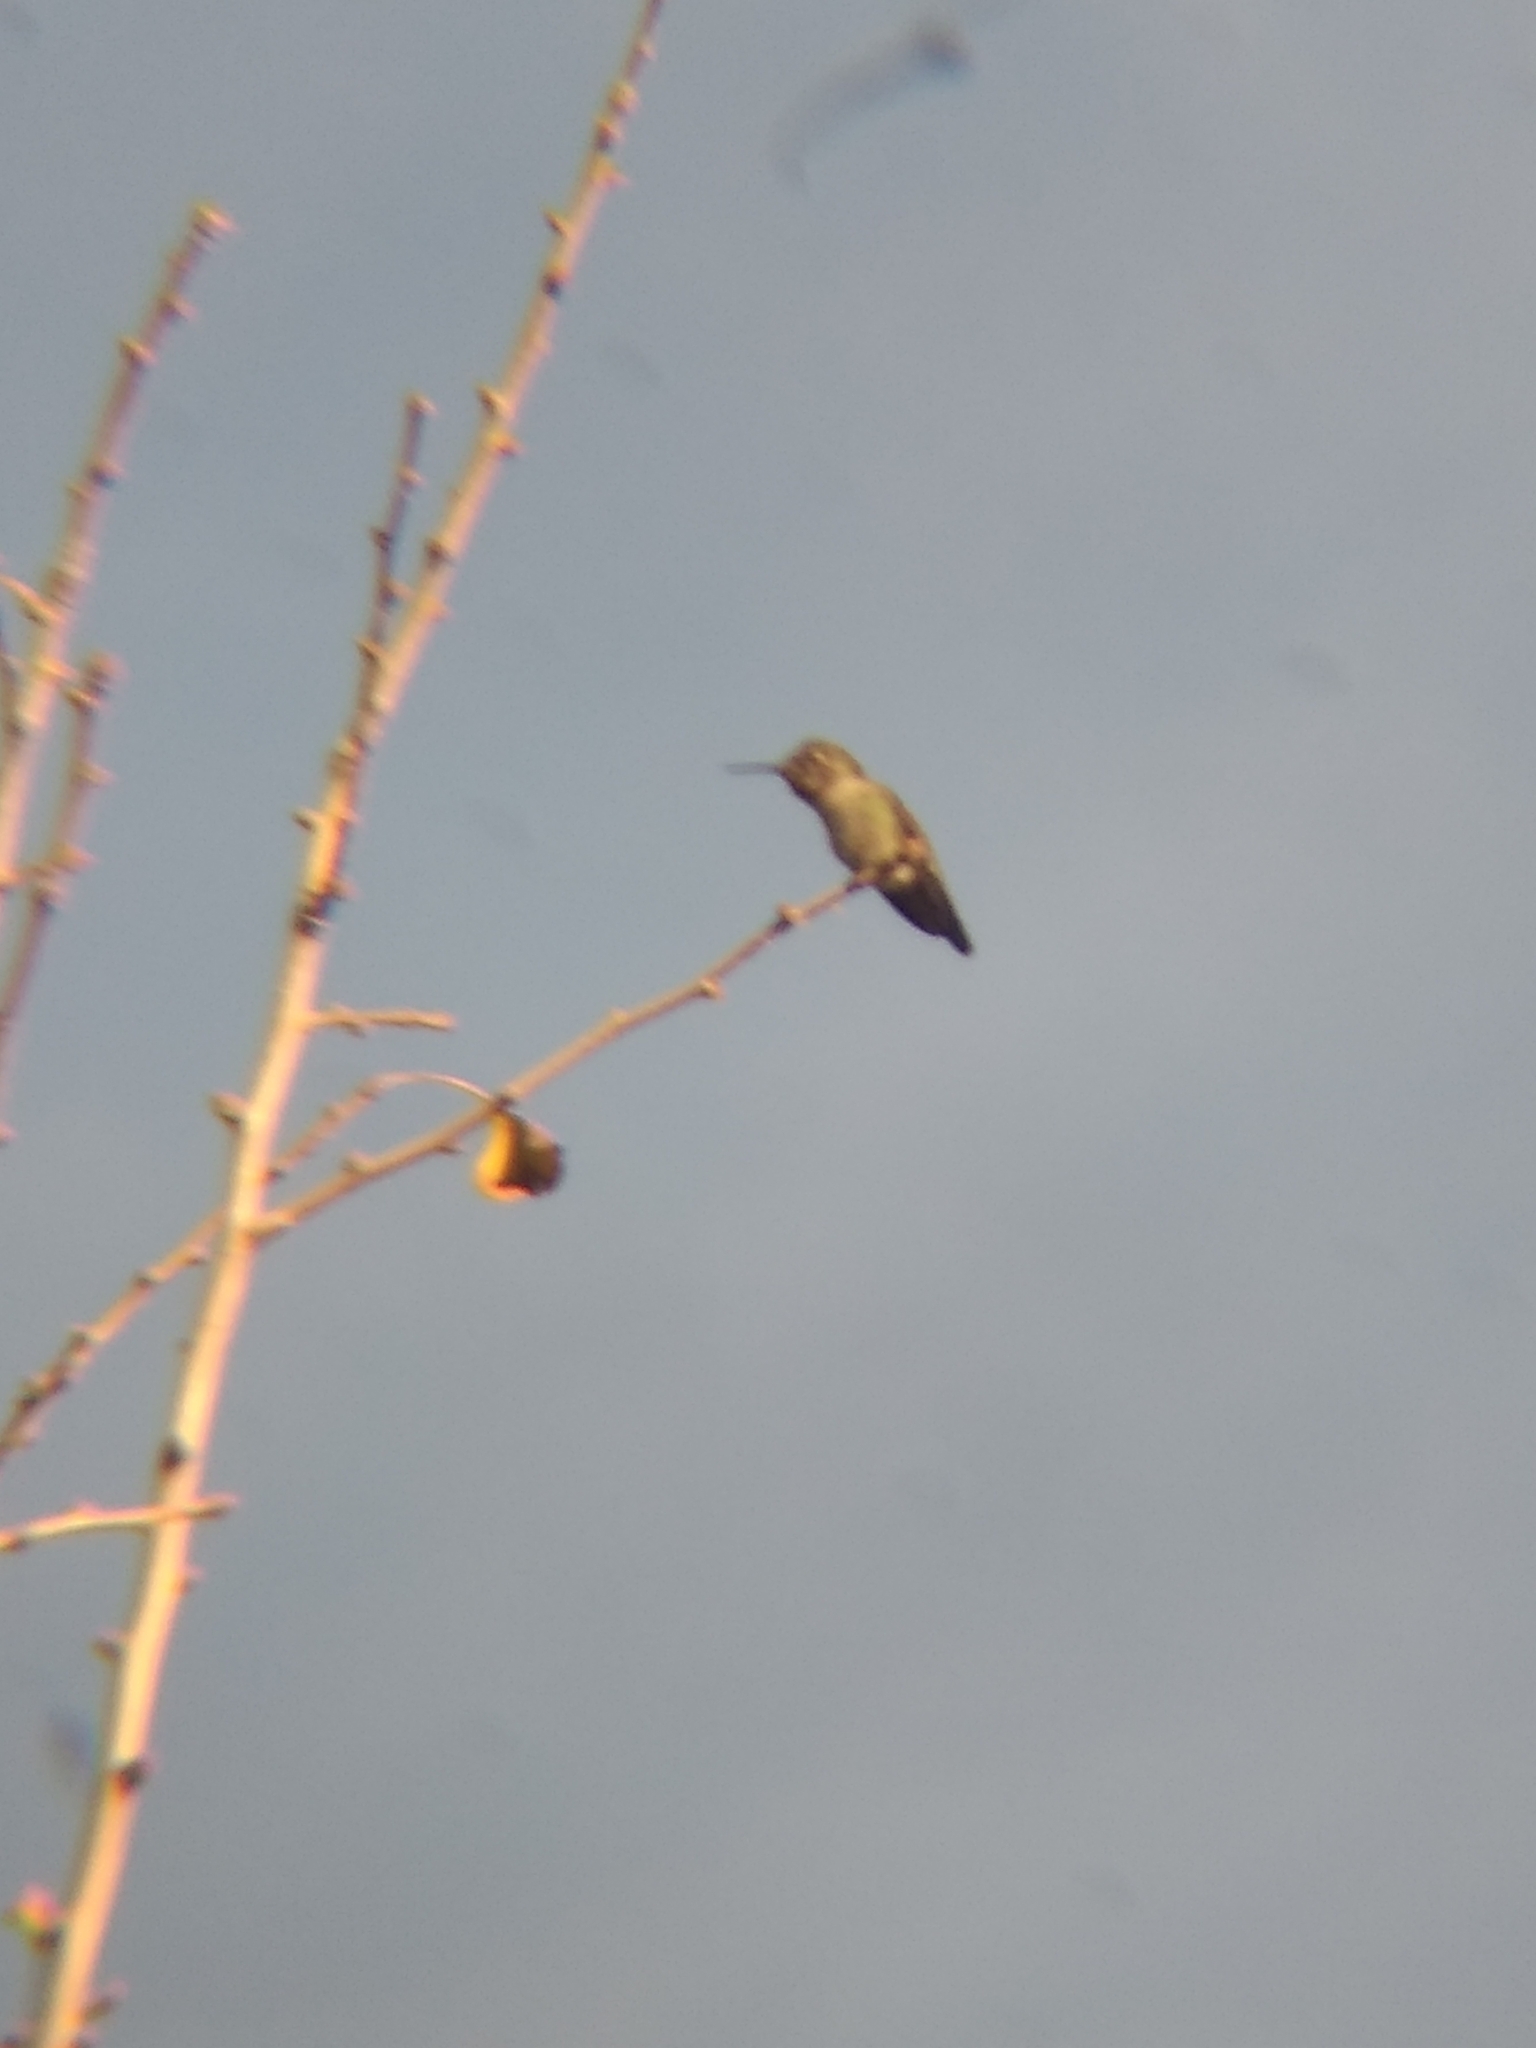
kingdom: Animalia
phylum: Chordata
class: Aves
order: Apodiformes
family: Trochilidae
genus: Calypte
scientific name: Calypte anna
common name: Anna's hummingbird
